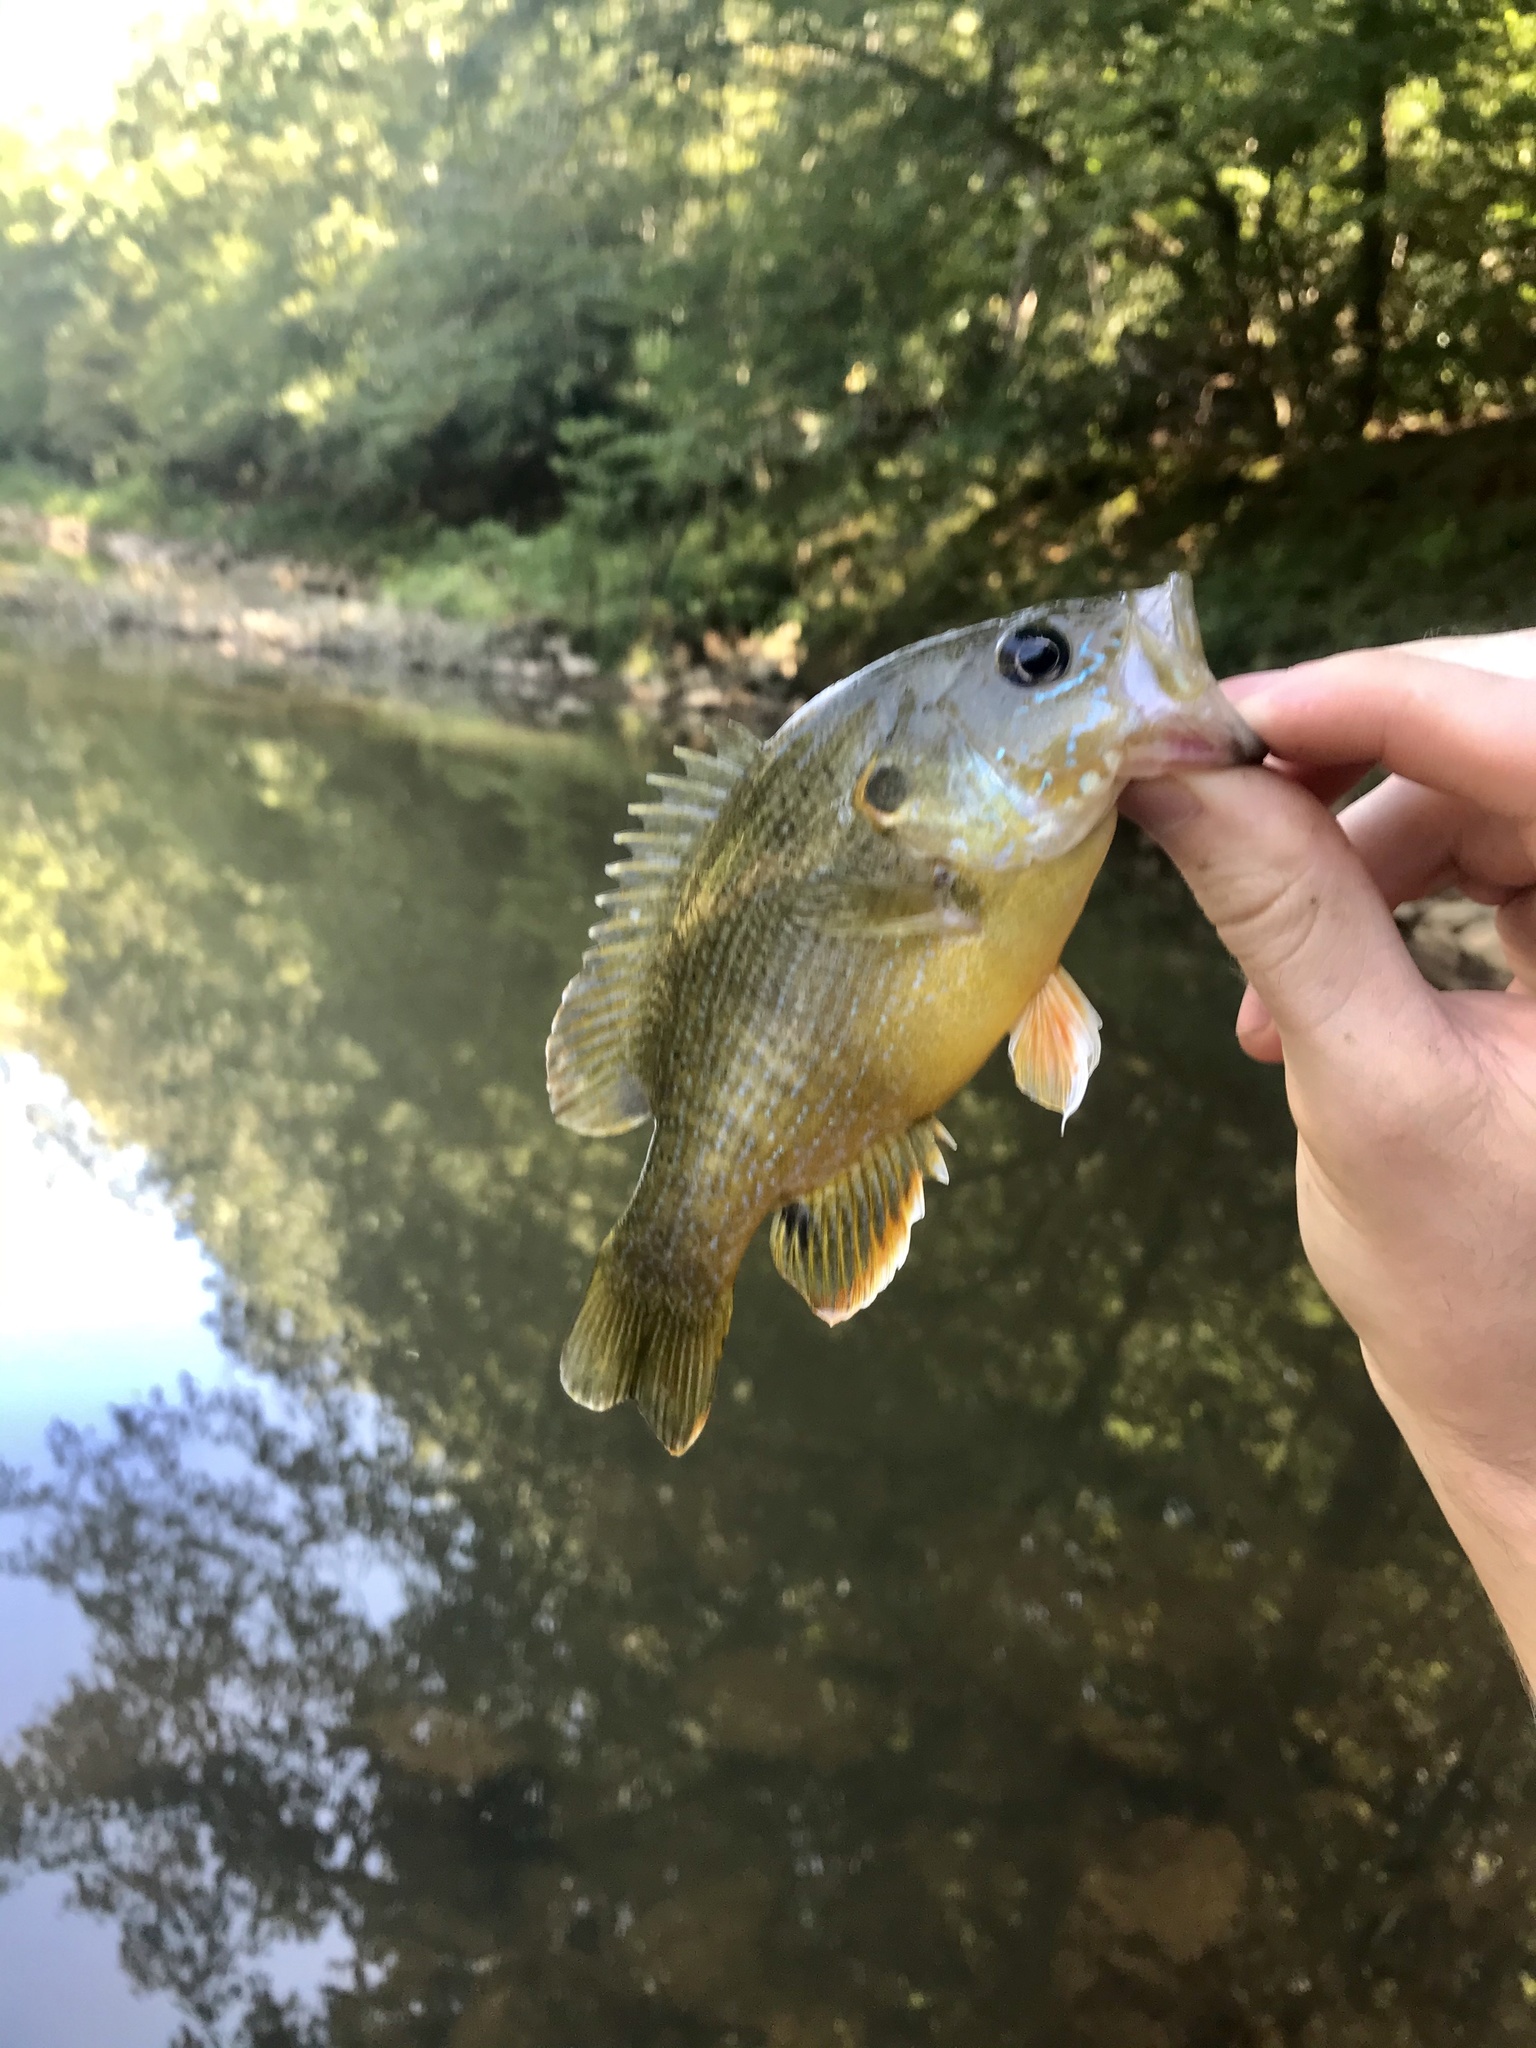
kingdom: Animalia
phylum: Chordata
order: Perciformes
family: Centrarchidae
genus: Lepomis
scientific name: Lepomis cyanellus
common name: Green sunfish
